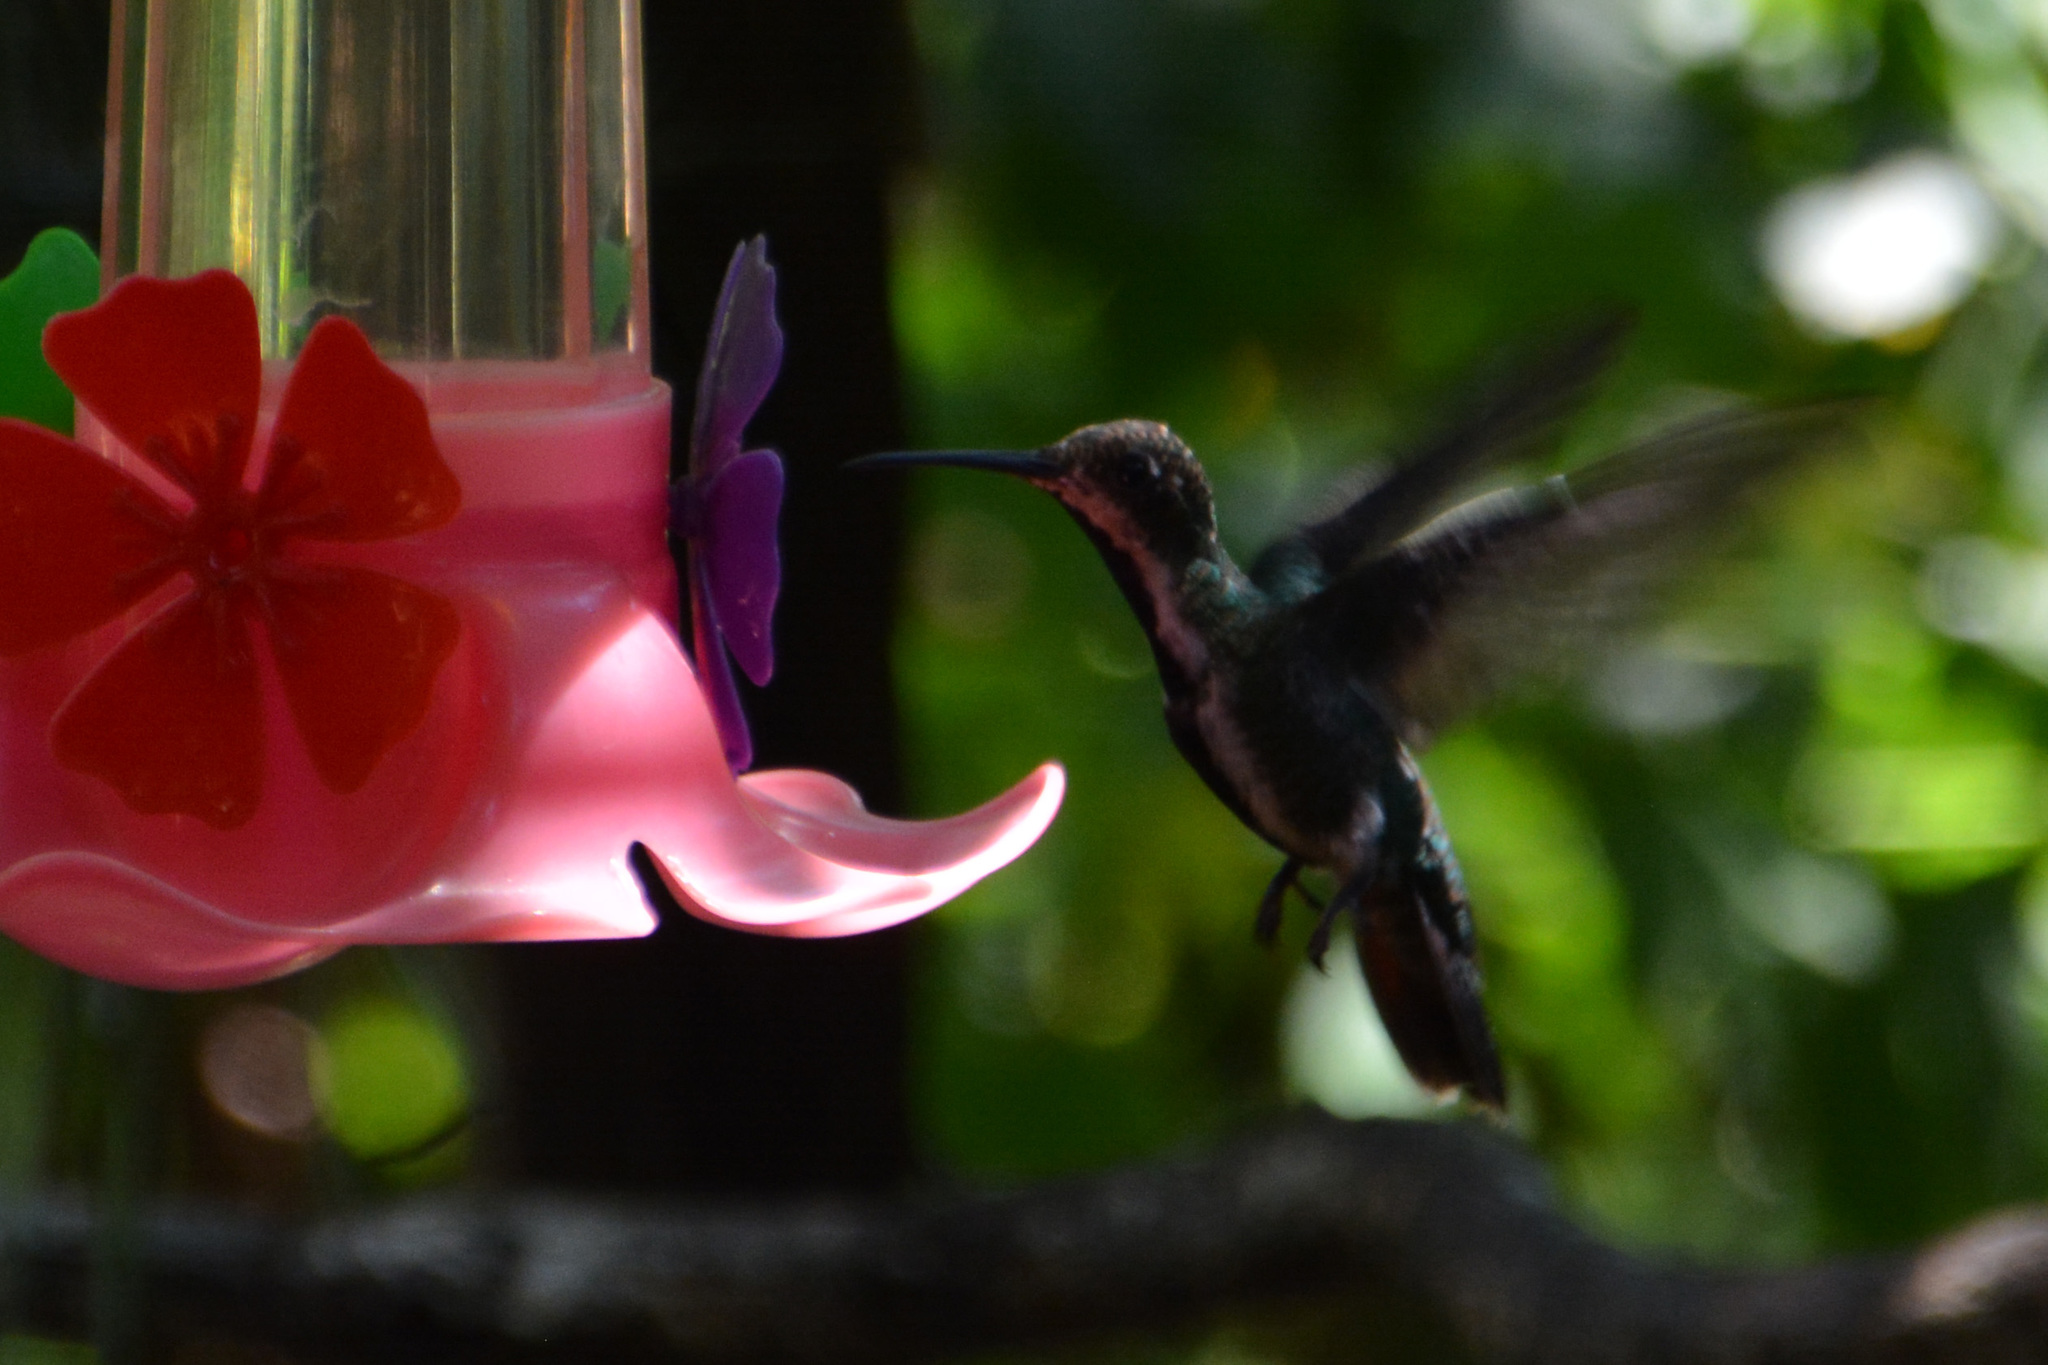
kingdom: Animalia
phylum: Chordata
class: Aves
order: Apodiformes
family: Trochilidae
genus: Anthracothorax
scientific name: Anthracothorax nigricollis
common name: Black-throated mango
